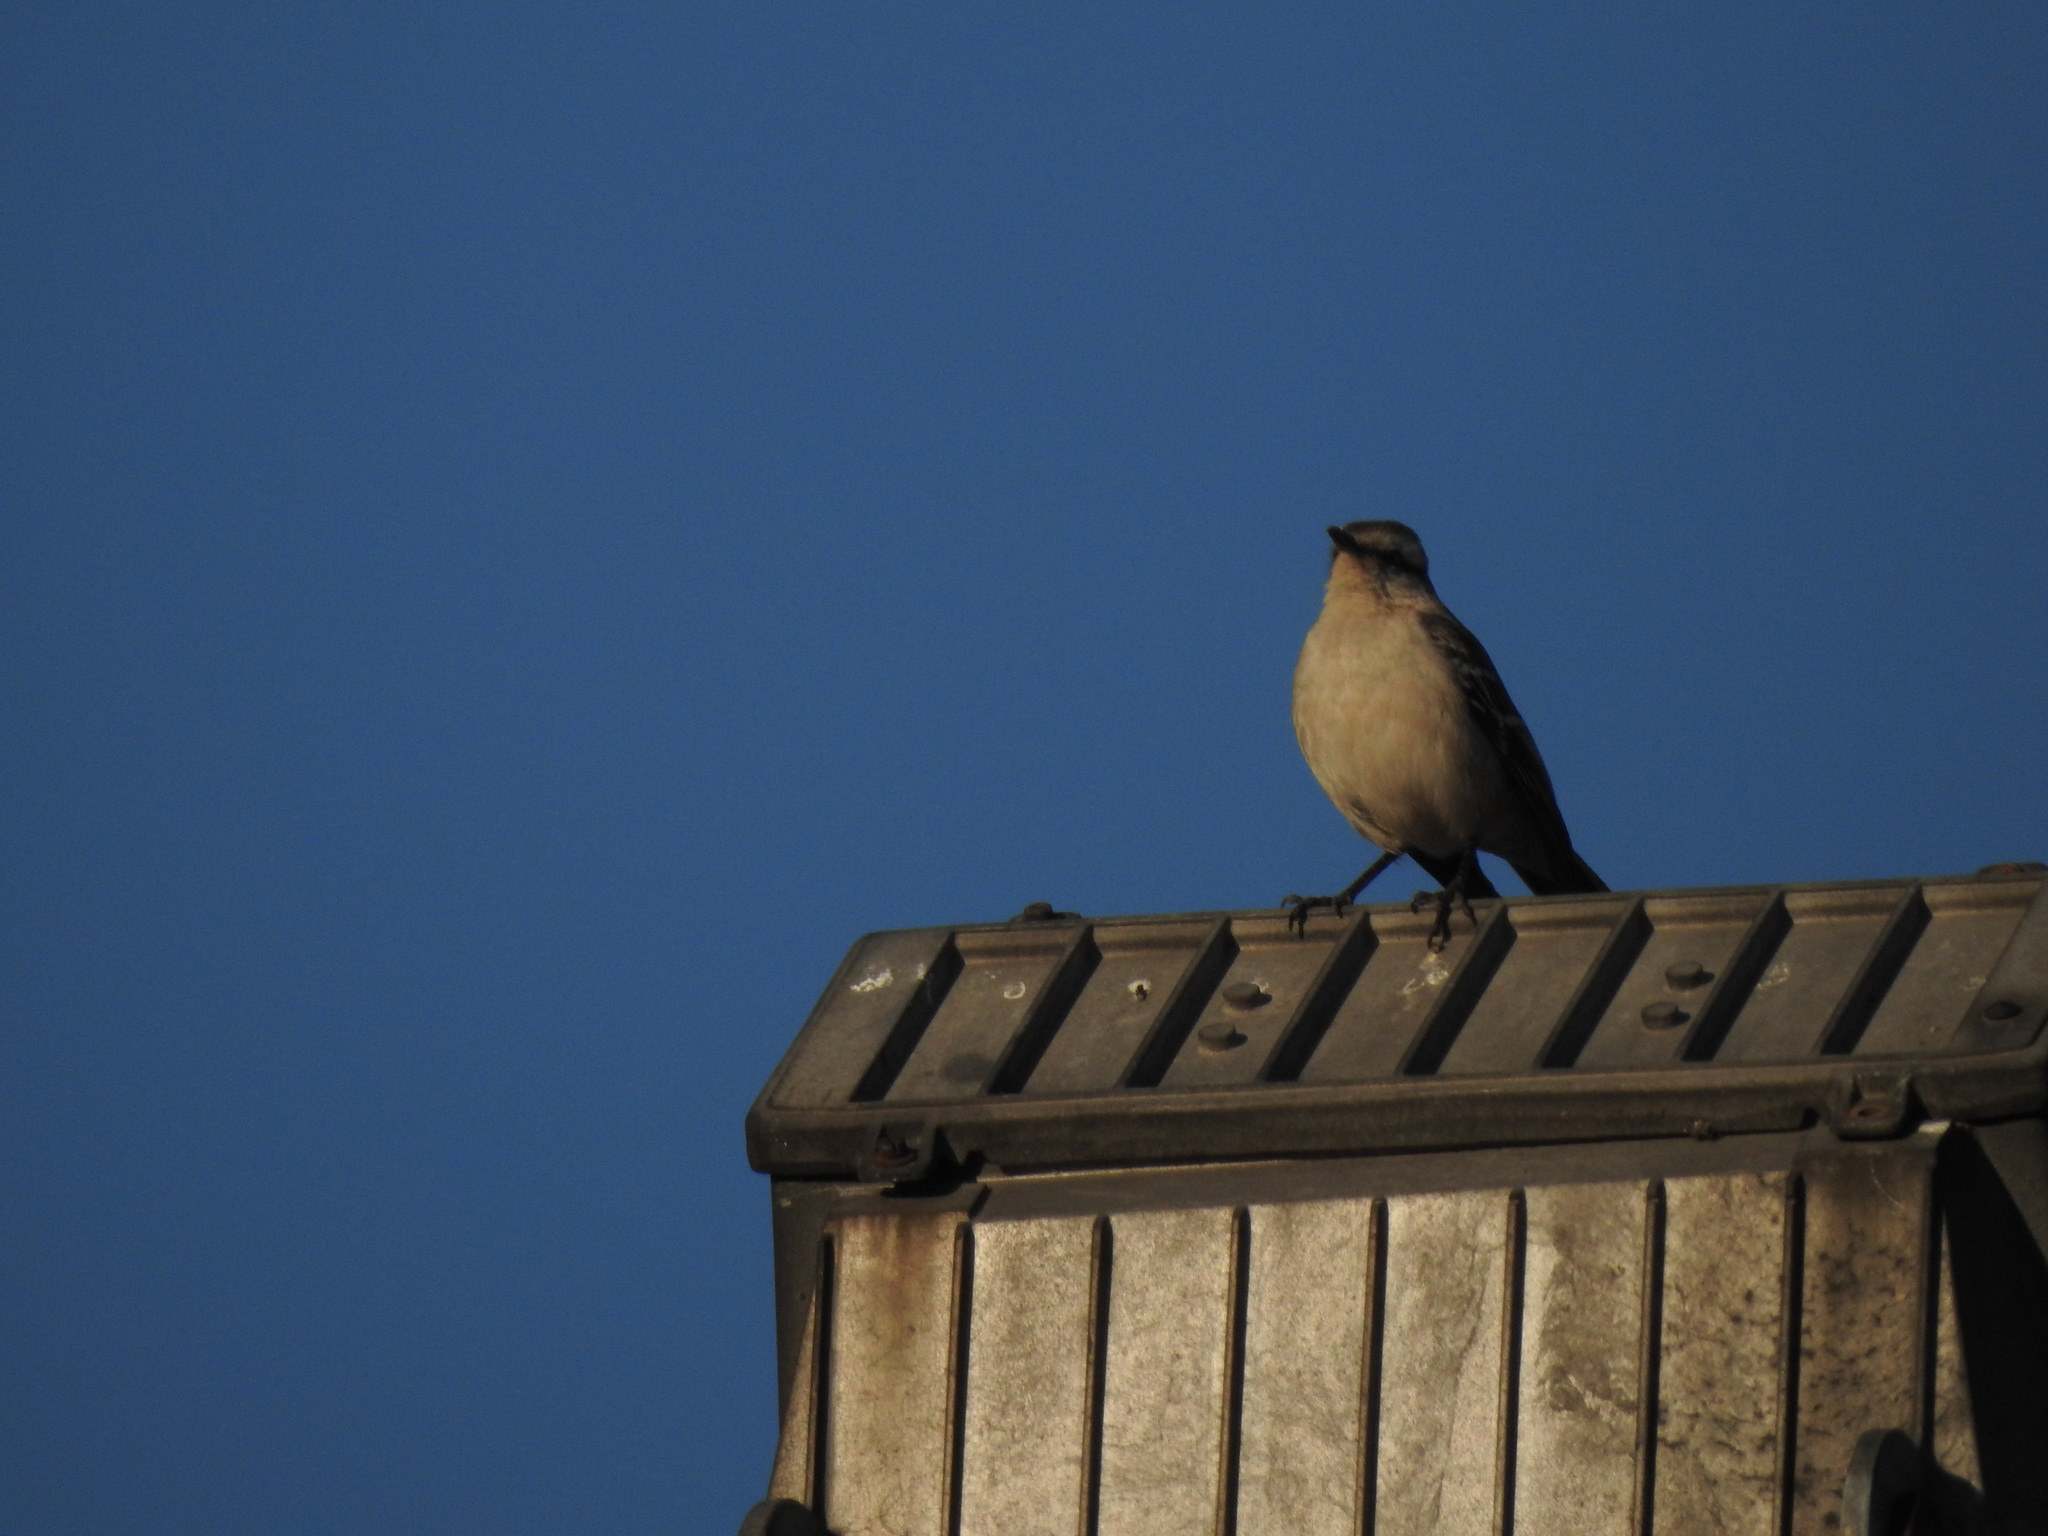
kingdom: Animalia
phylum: Chordata
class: Aves
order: Passeriformes
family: Mimidae
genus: Mimus
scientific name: Mimus saturninus
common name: Chalk-browed mockingbird
